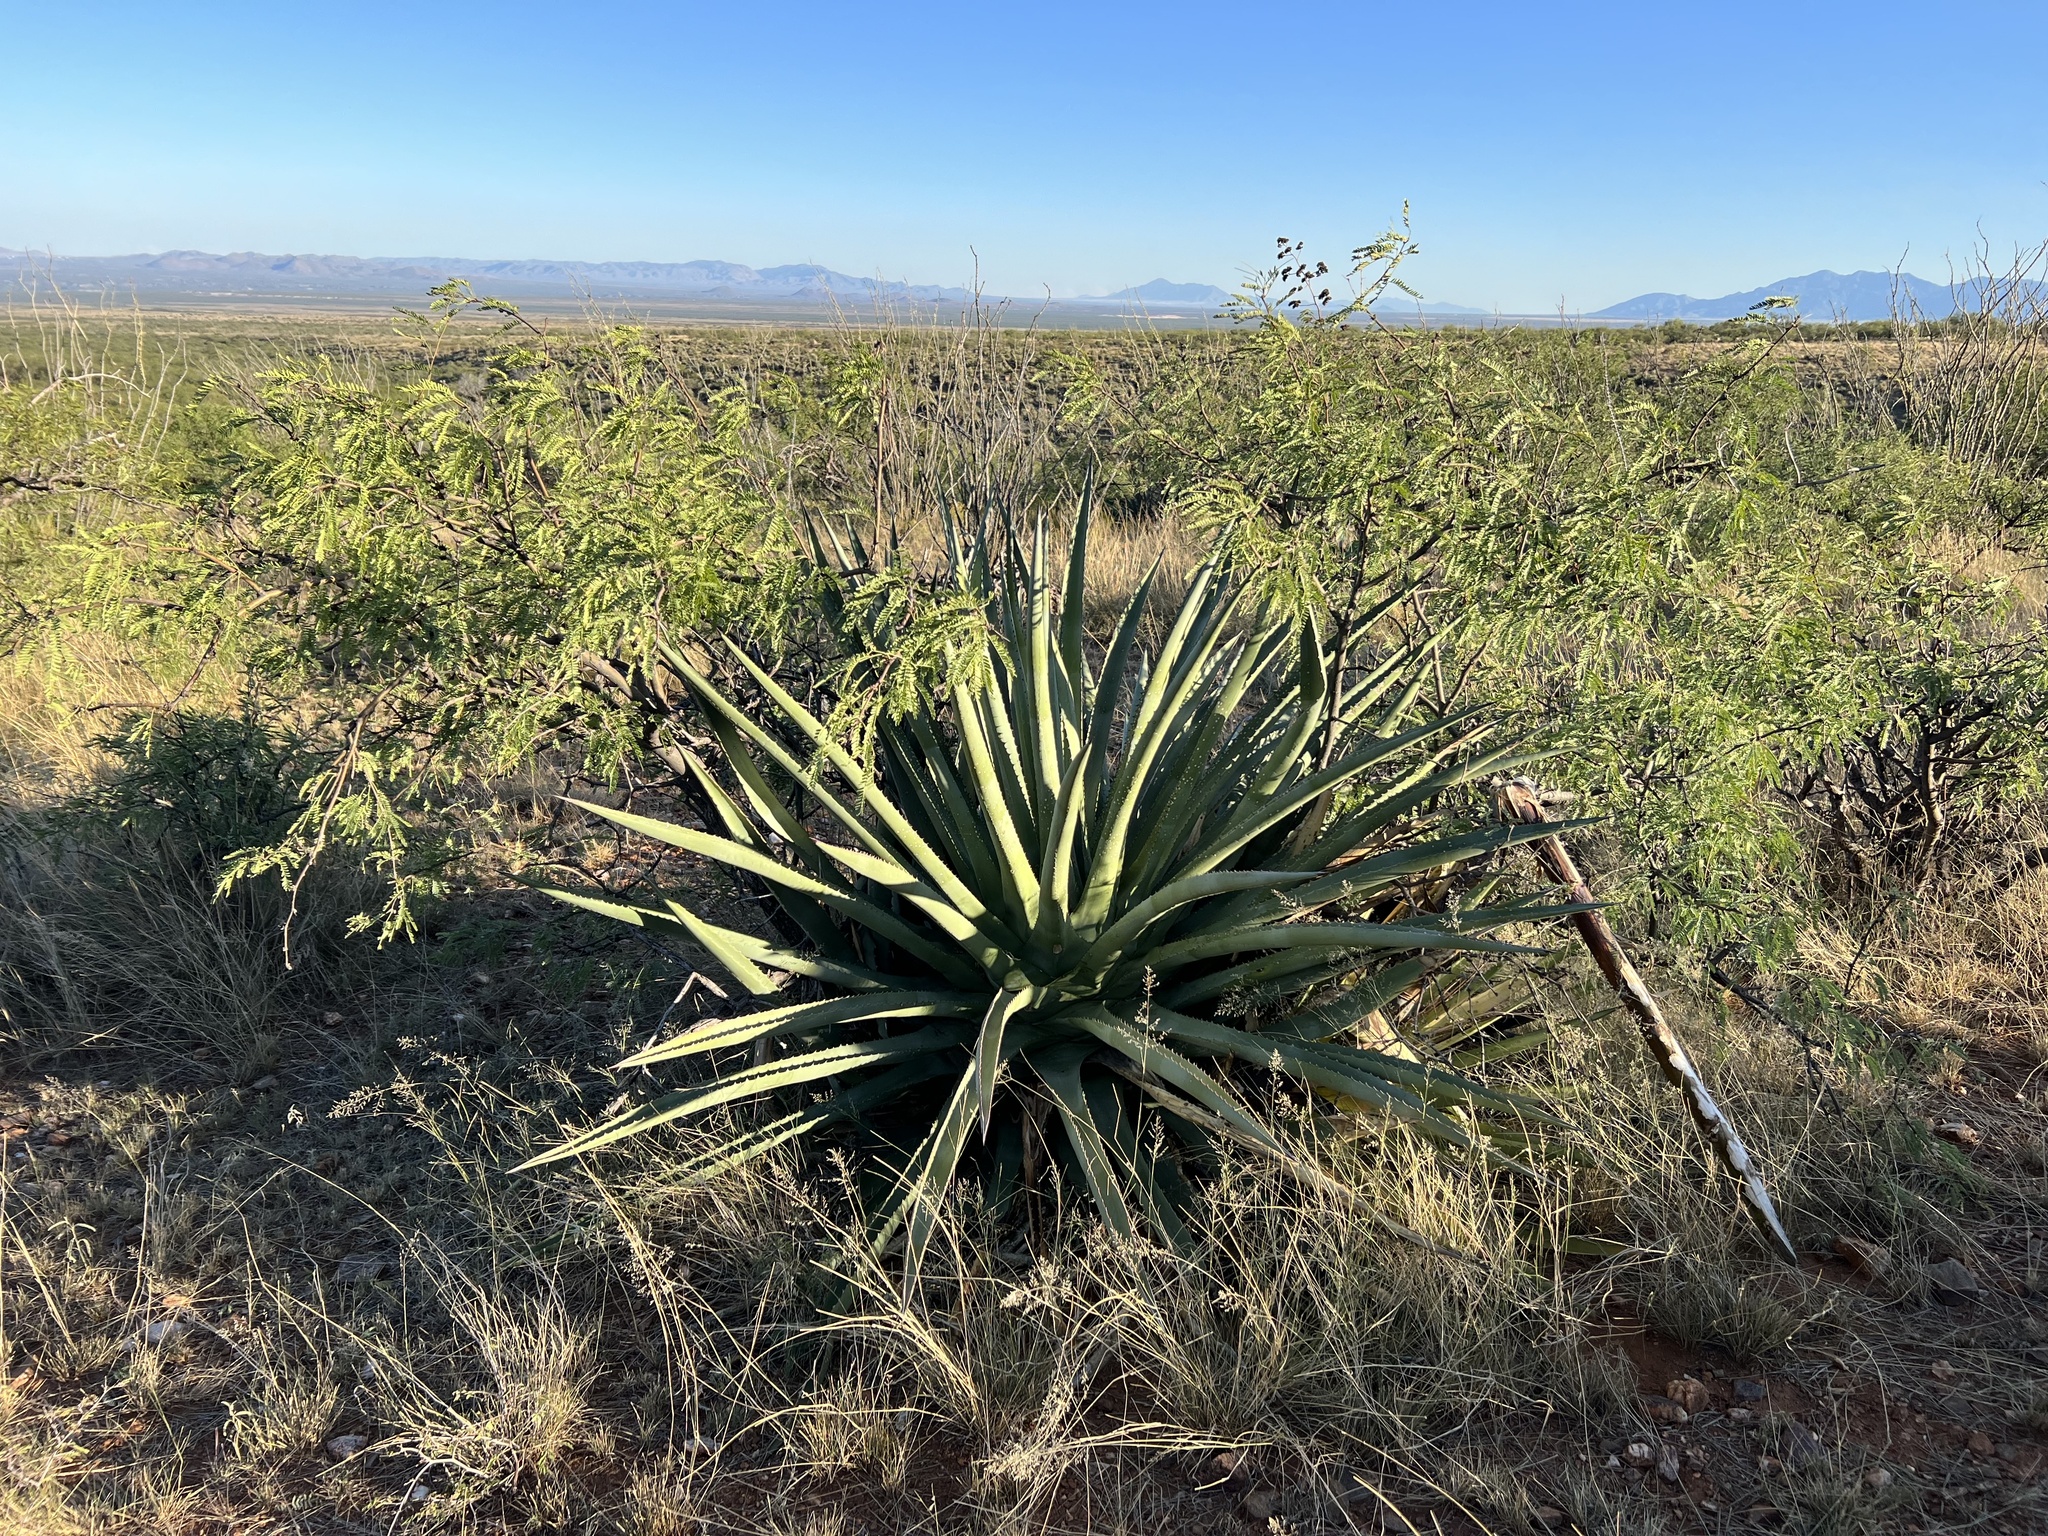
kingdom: Plantae
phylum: Tracheophyta
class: Liliopsida
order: Asparagales
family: Asparagaceae
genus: Agave
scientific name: Agave palmeri
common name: Palmer agave
